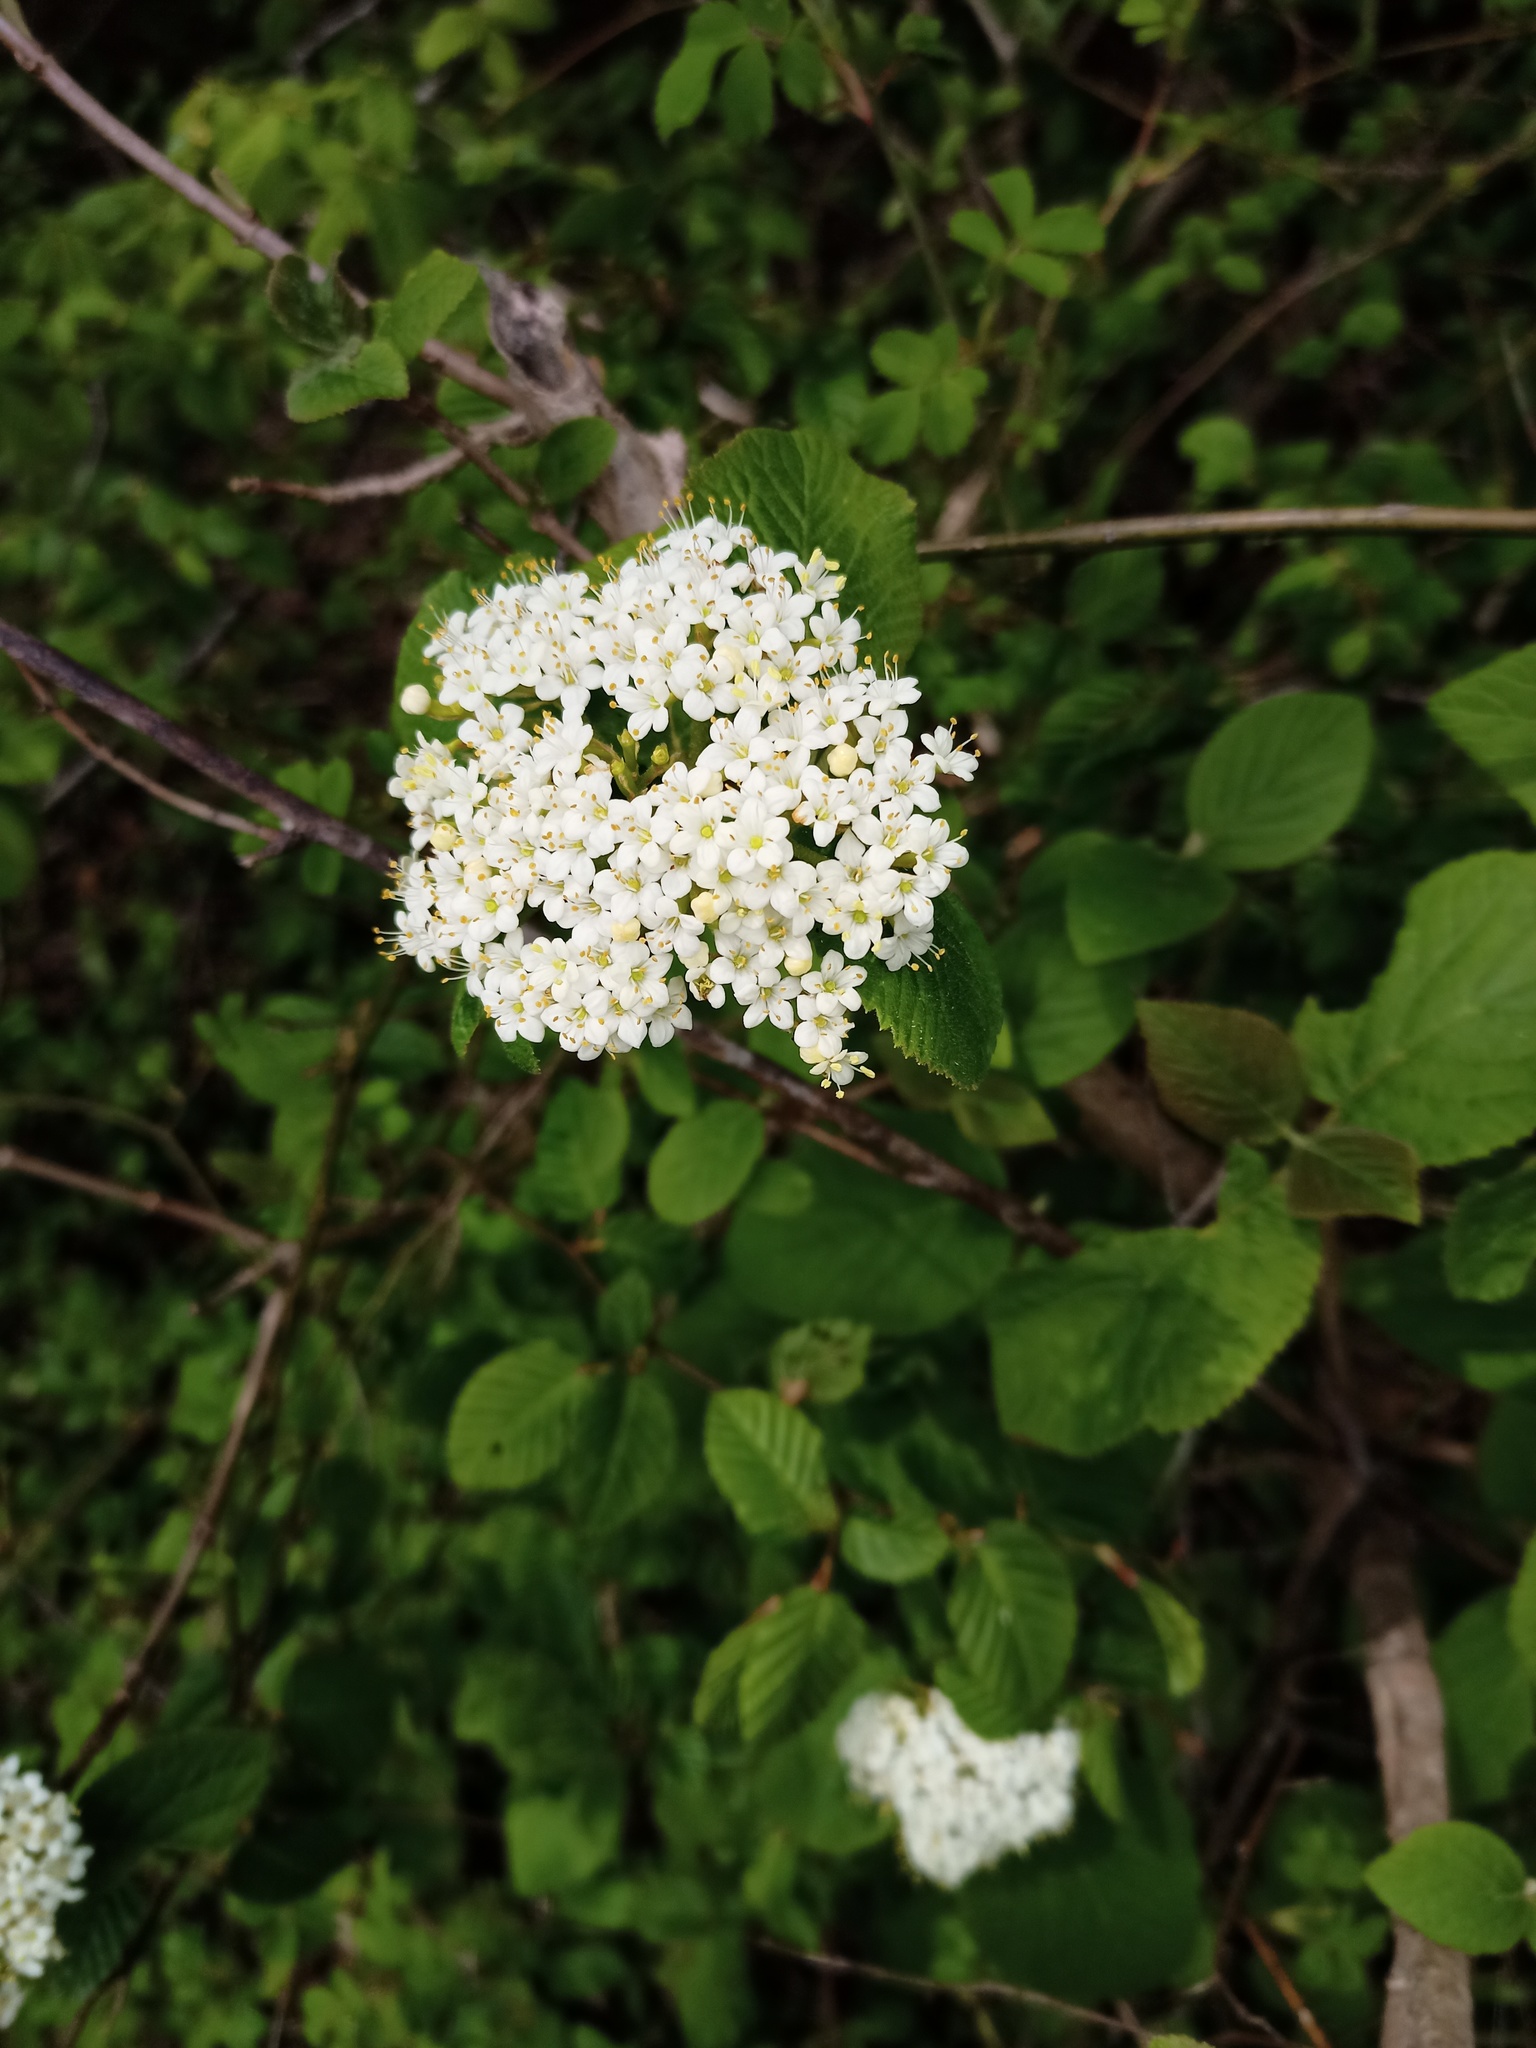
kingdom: Plantae
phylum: Tracheophyta
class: Magnoliopsida
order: Dipsacales
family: Viburnaceae
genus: Viburnum
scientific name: Viburnum lantana
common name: Wayfaring tree
